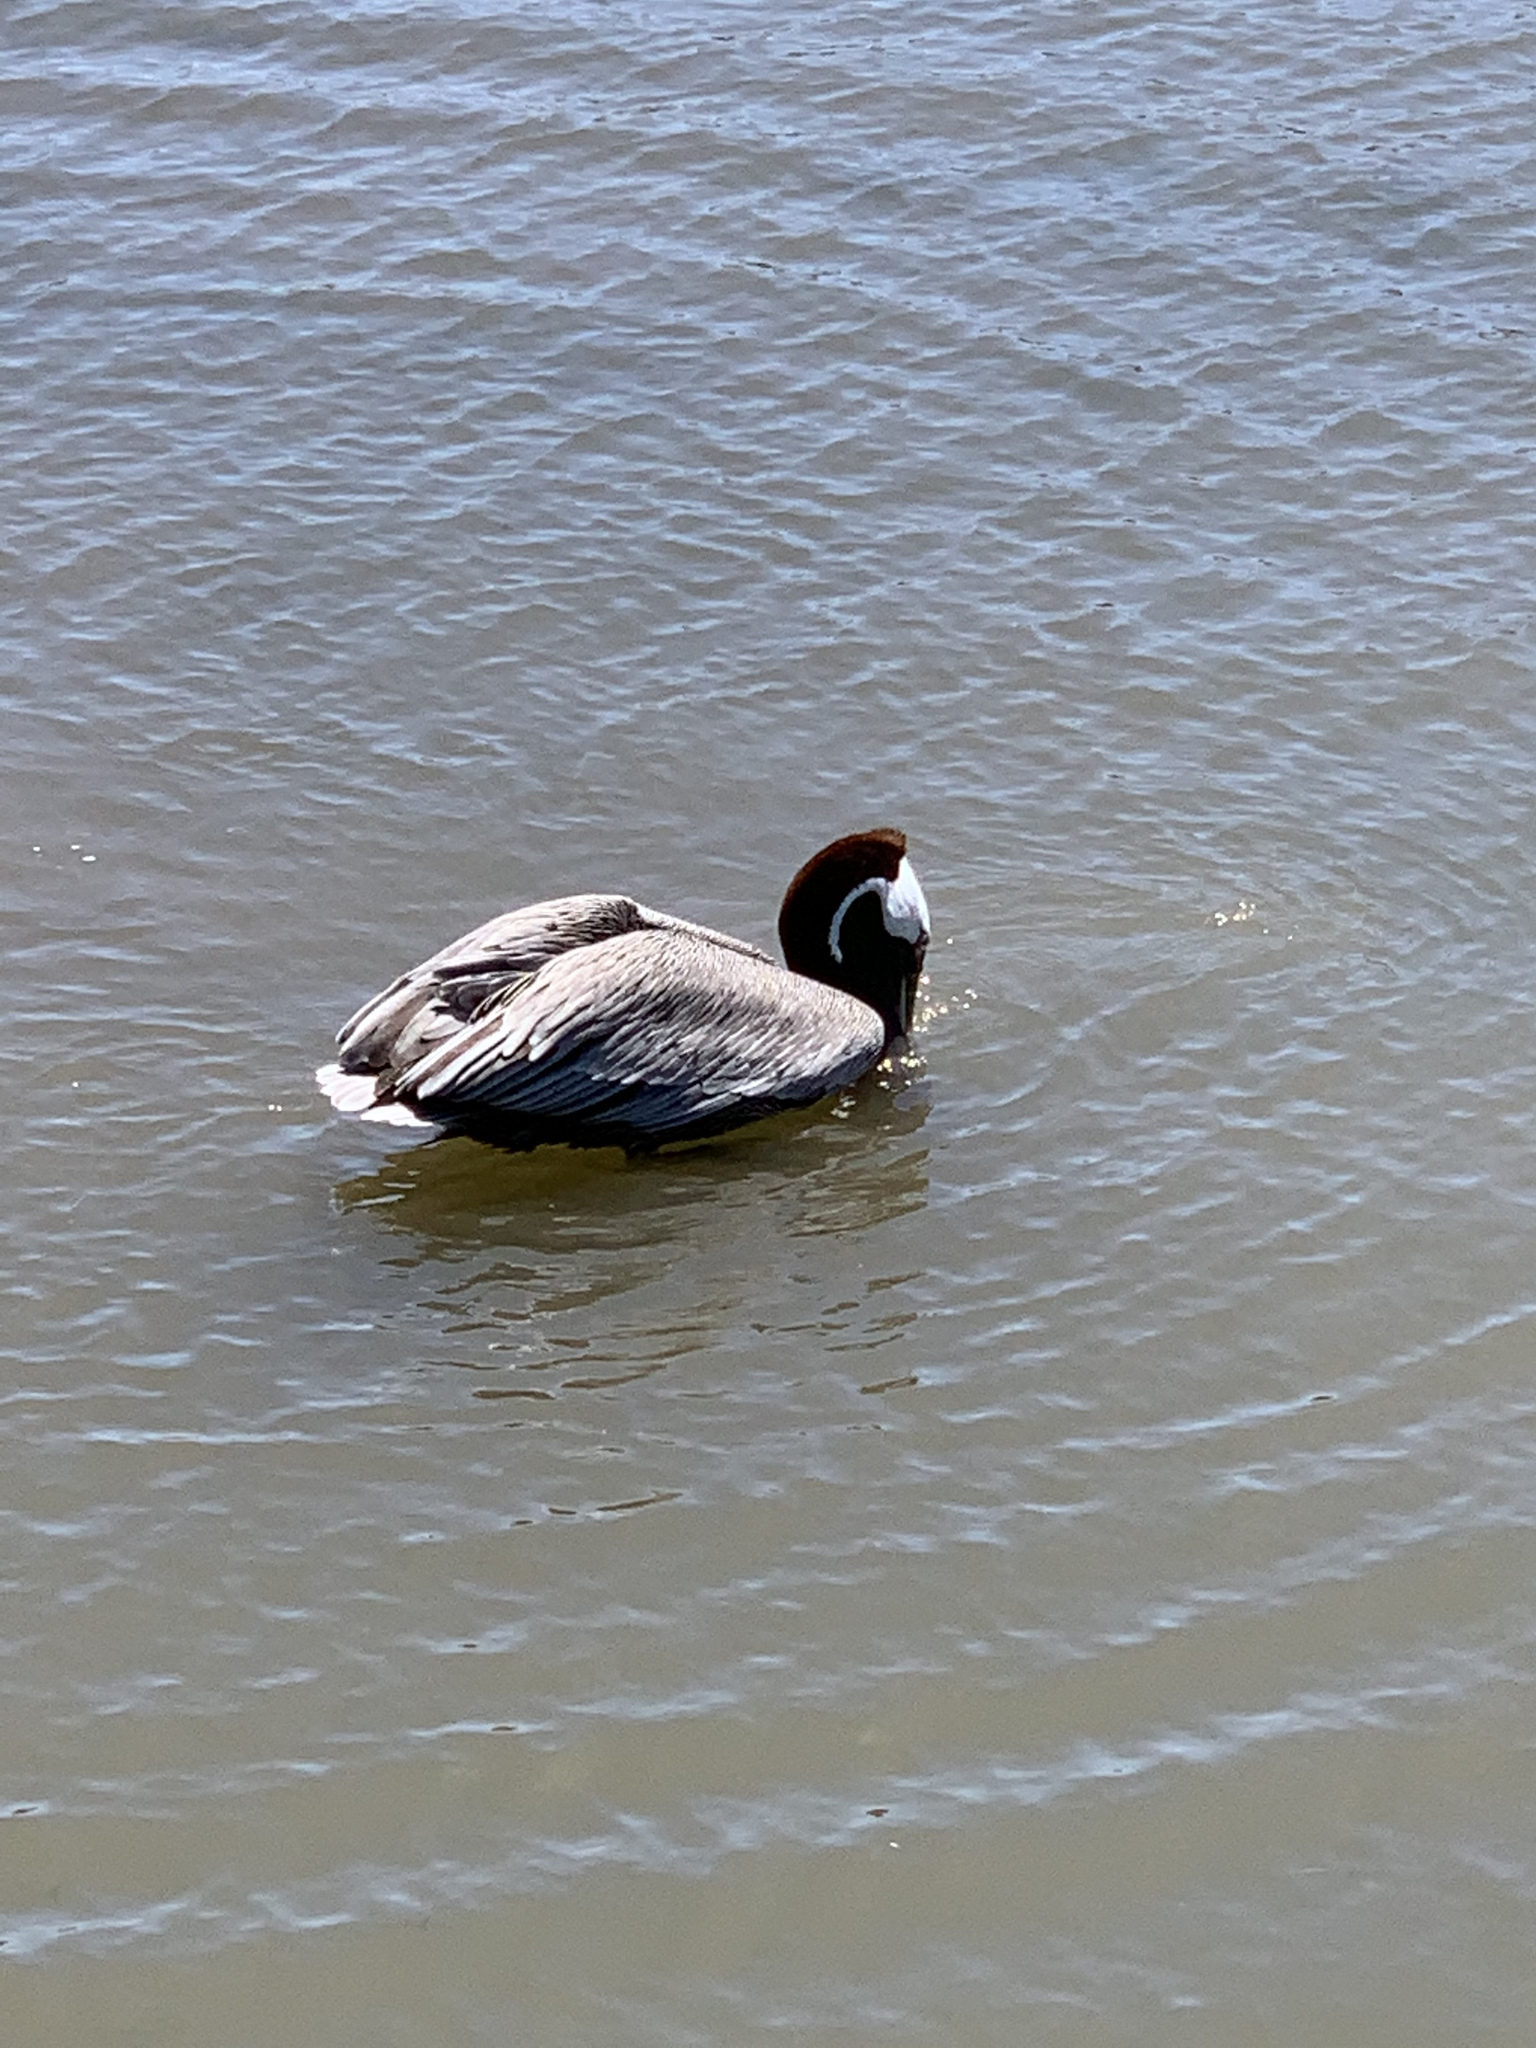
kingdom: Animalia
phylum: Chordata
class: Aves
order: Pelecaniformes
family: Pelecanidae
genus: Pelecanus
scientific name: Pelecanus occidentalis
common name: Brown pelican
